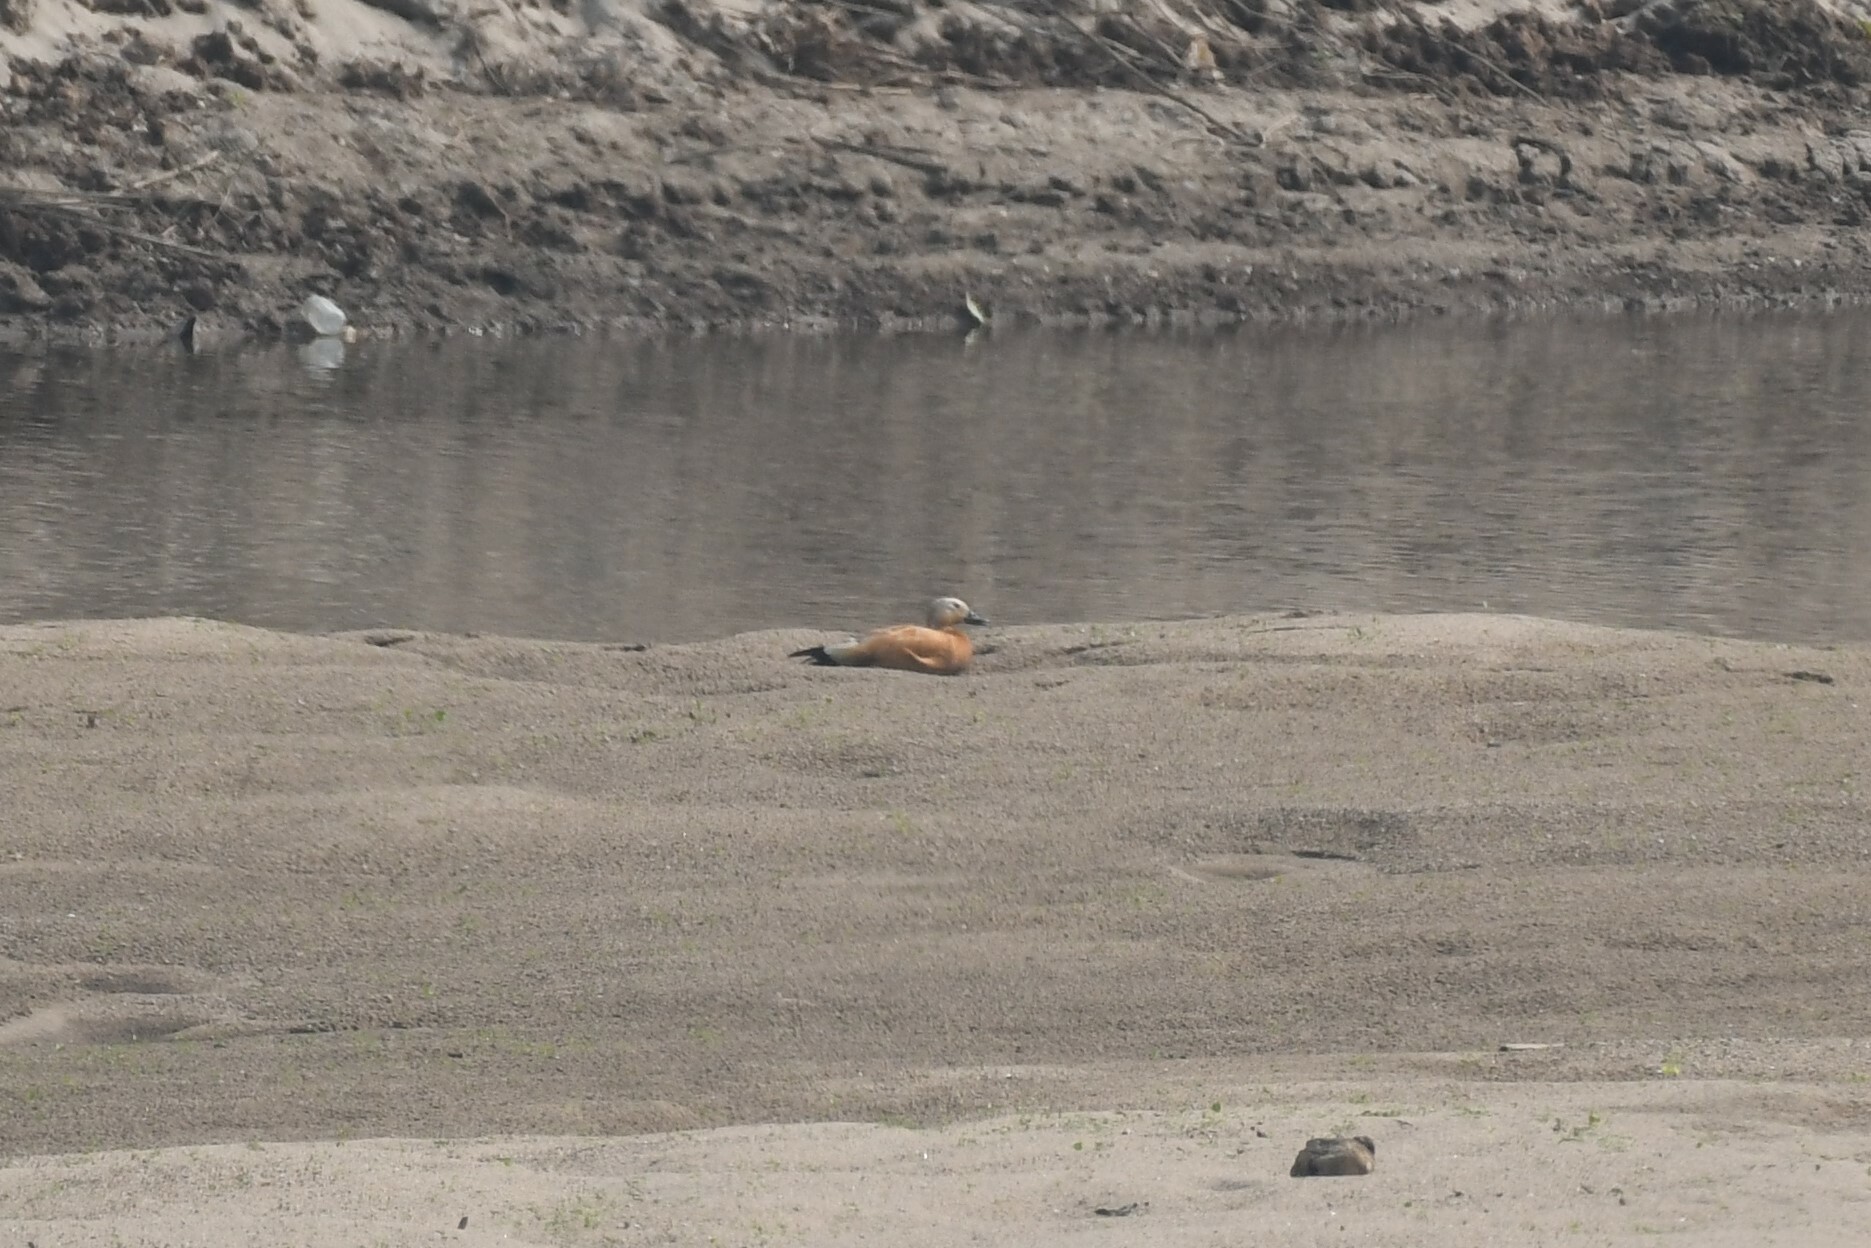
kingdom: Animalia
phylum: Chordata
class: Aves
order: Anseriformes
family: Anatidae
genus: Tadorna
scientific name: Tadorna ferruginea
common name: Ruddy shelduck
